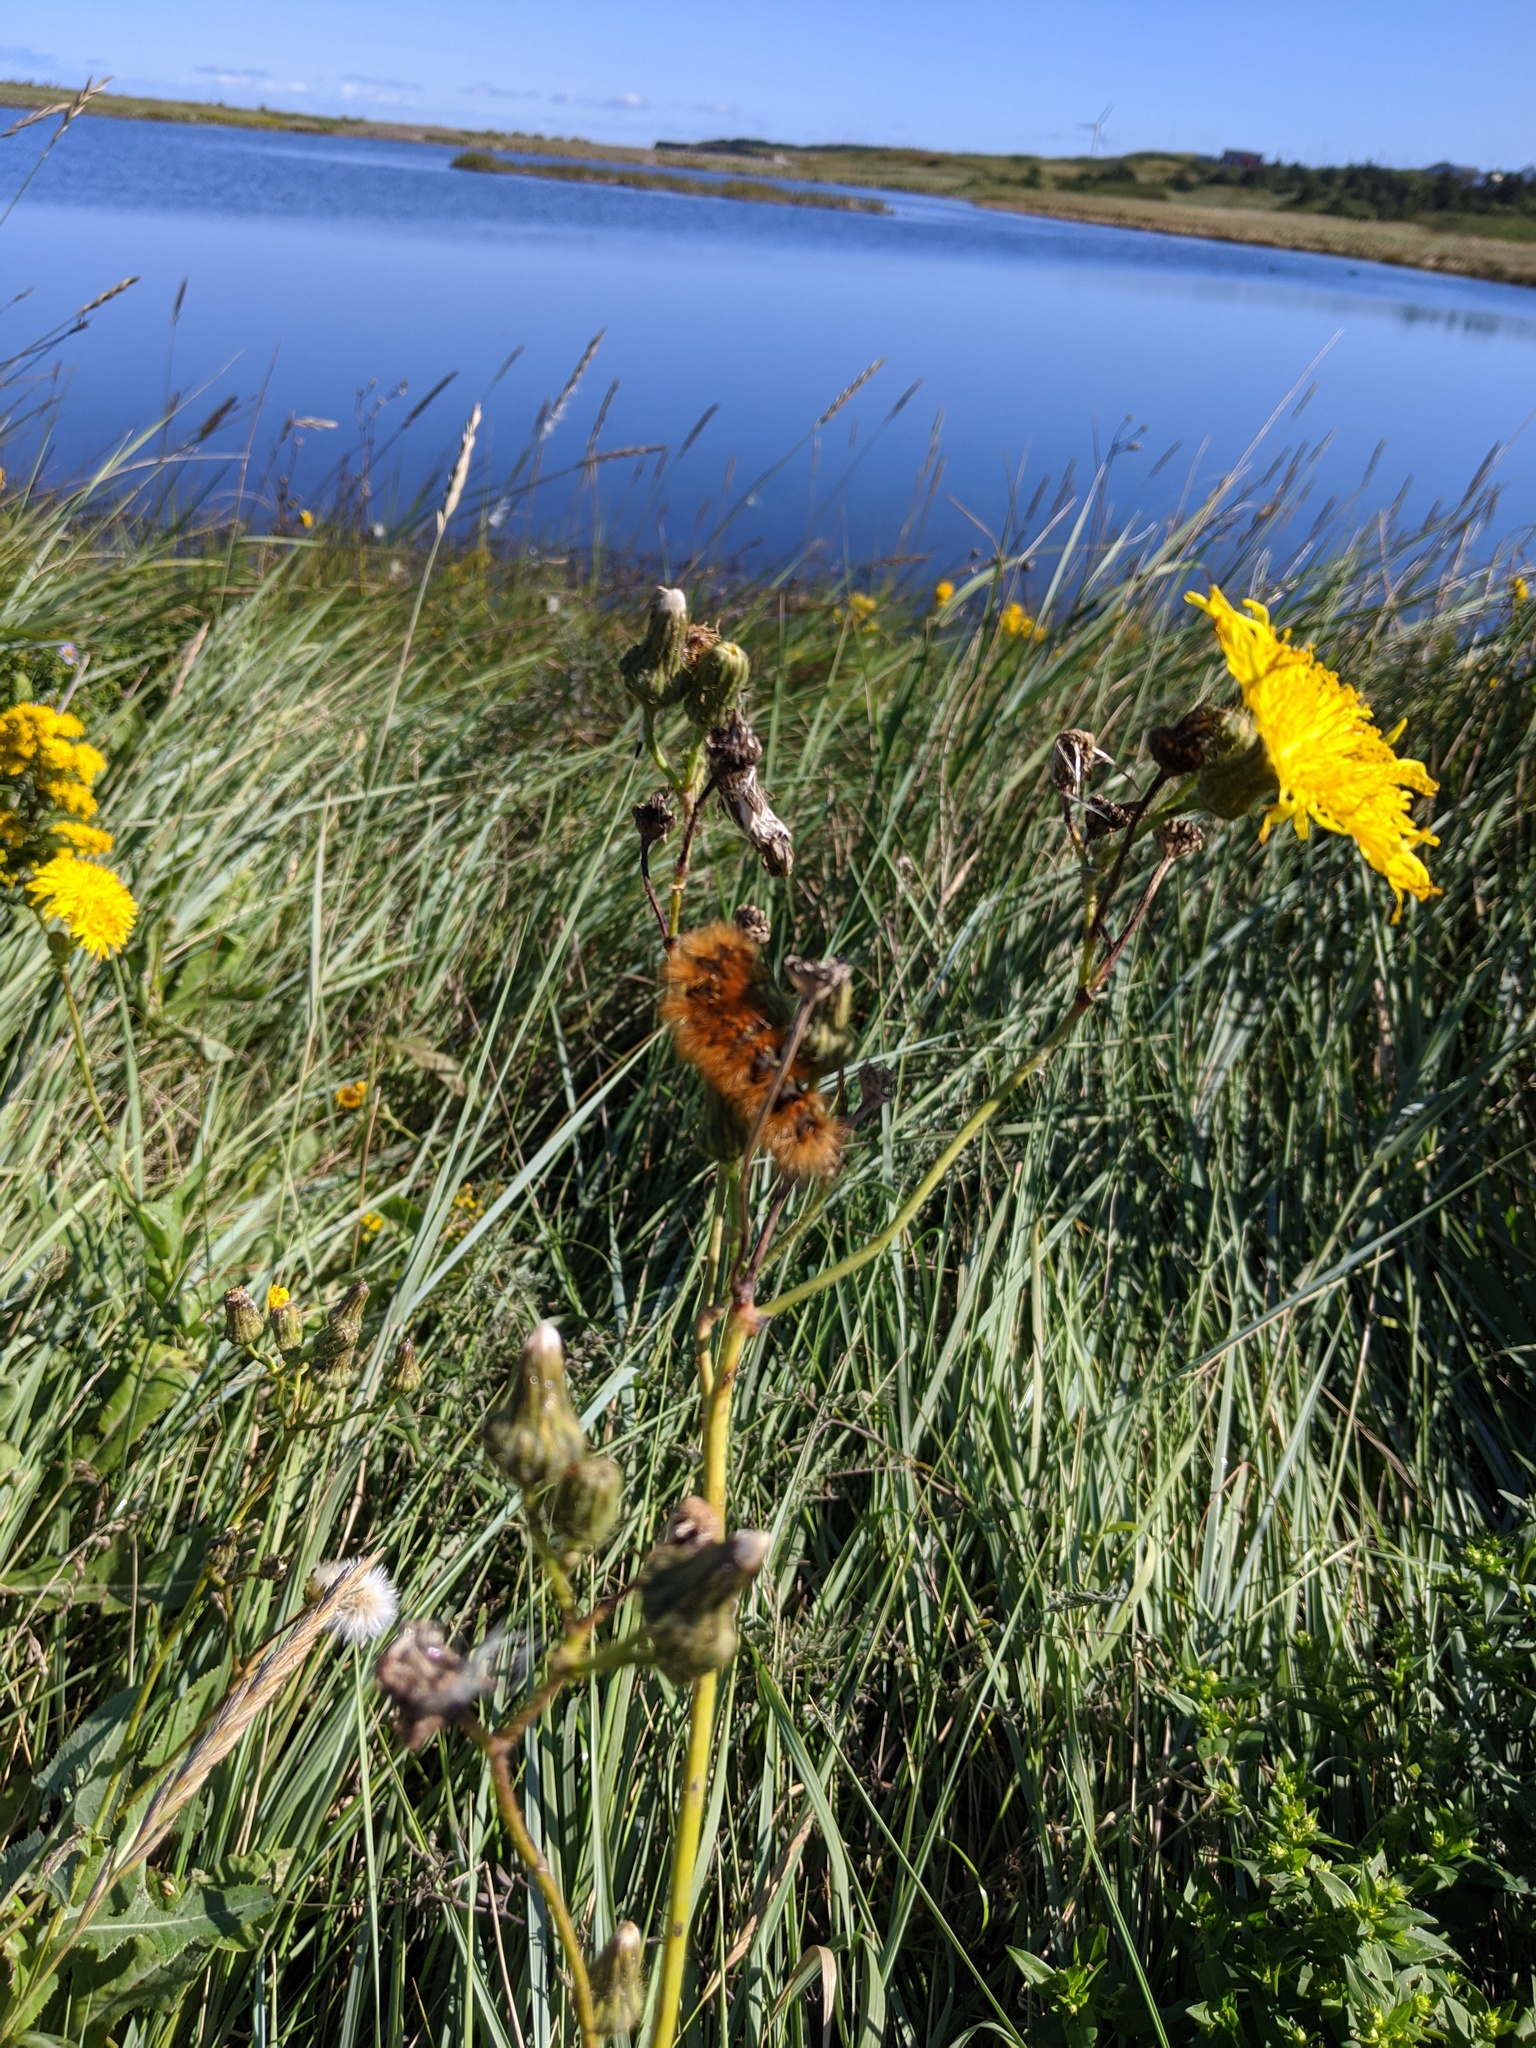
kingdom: Animalia
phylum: Arthropoda
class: Insecta
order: Lepidoptera
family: Erebidae
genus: Estigmene
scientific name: Estigmene acrea
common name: Salt marsh moth
